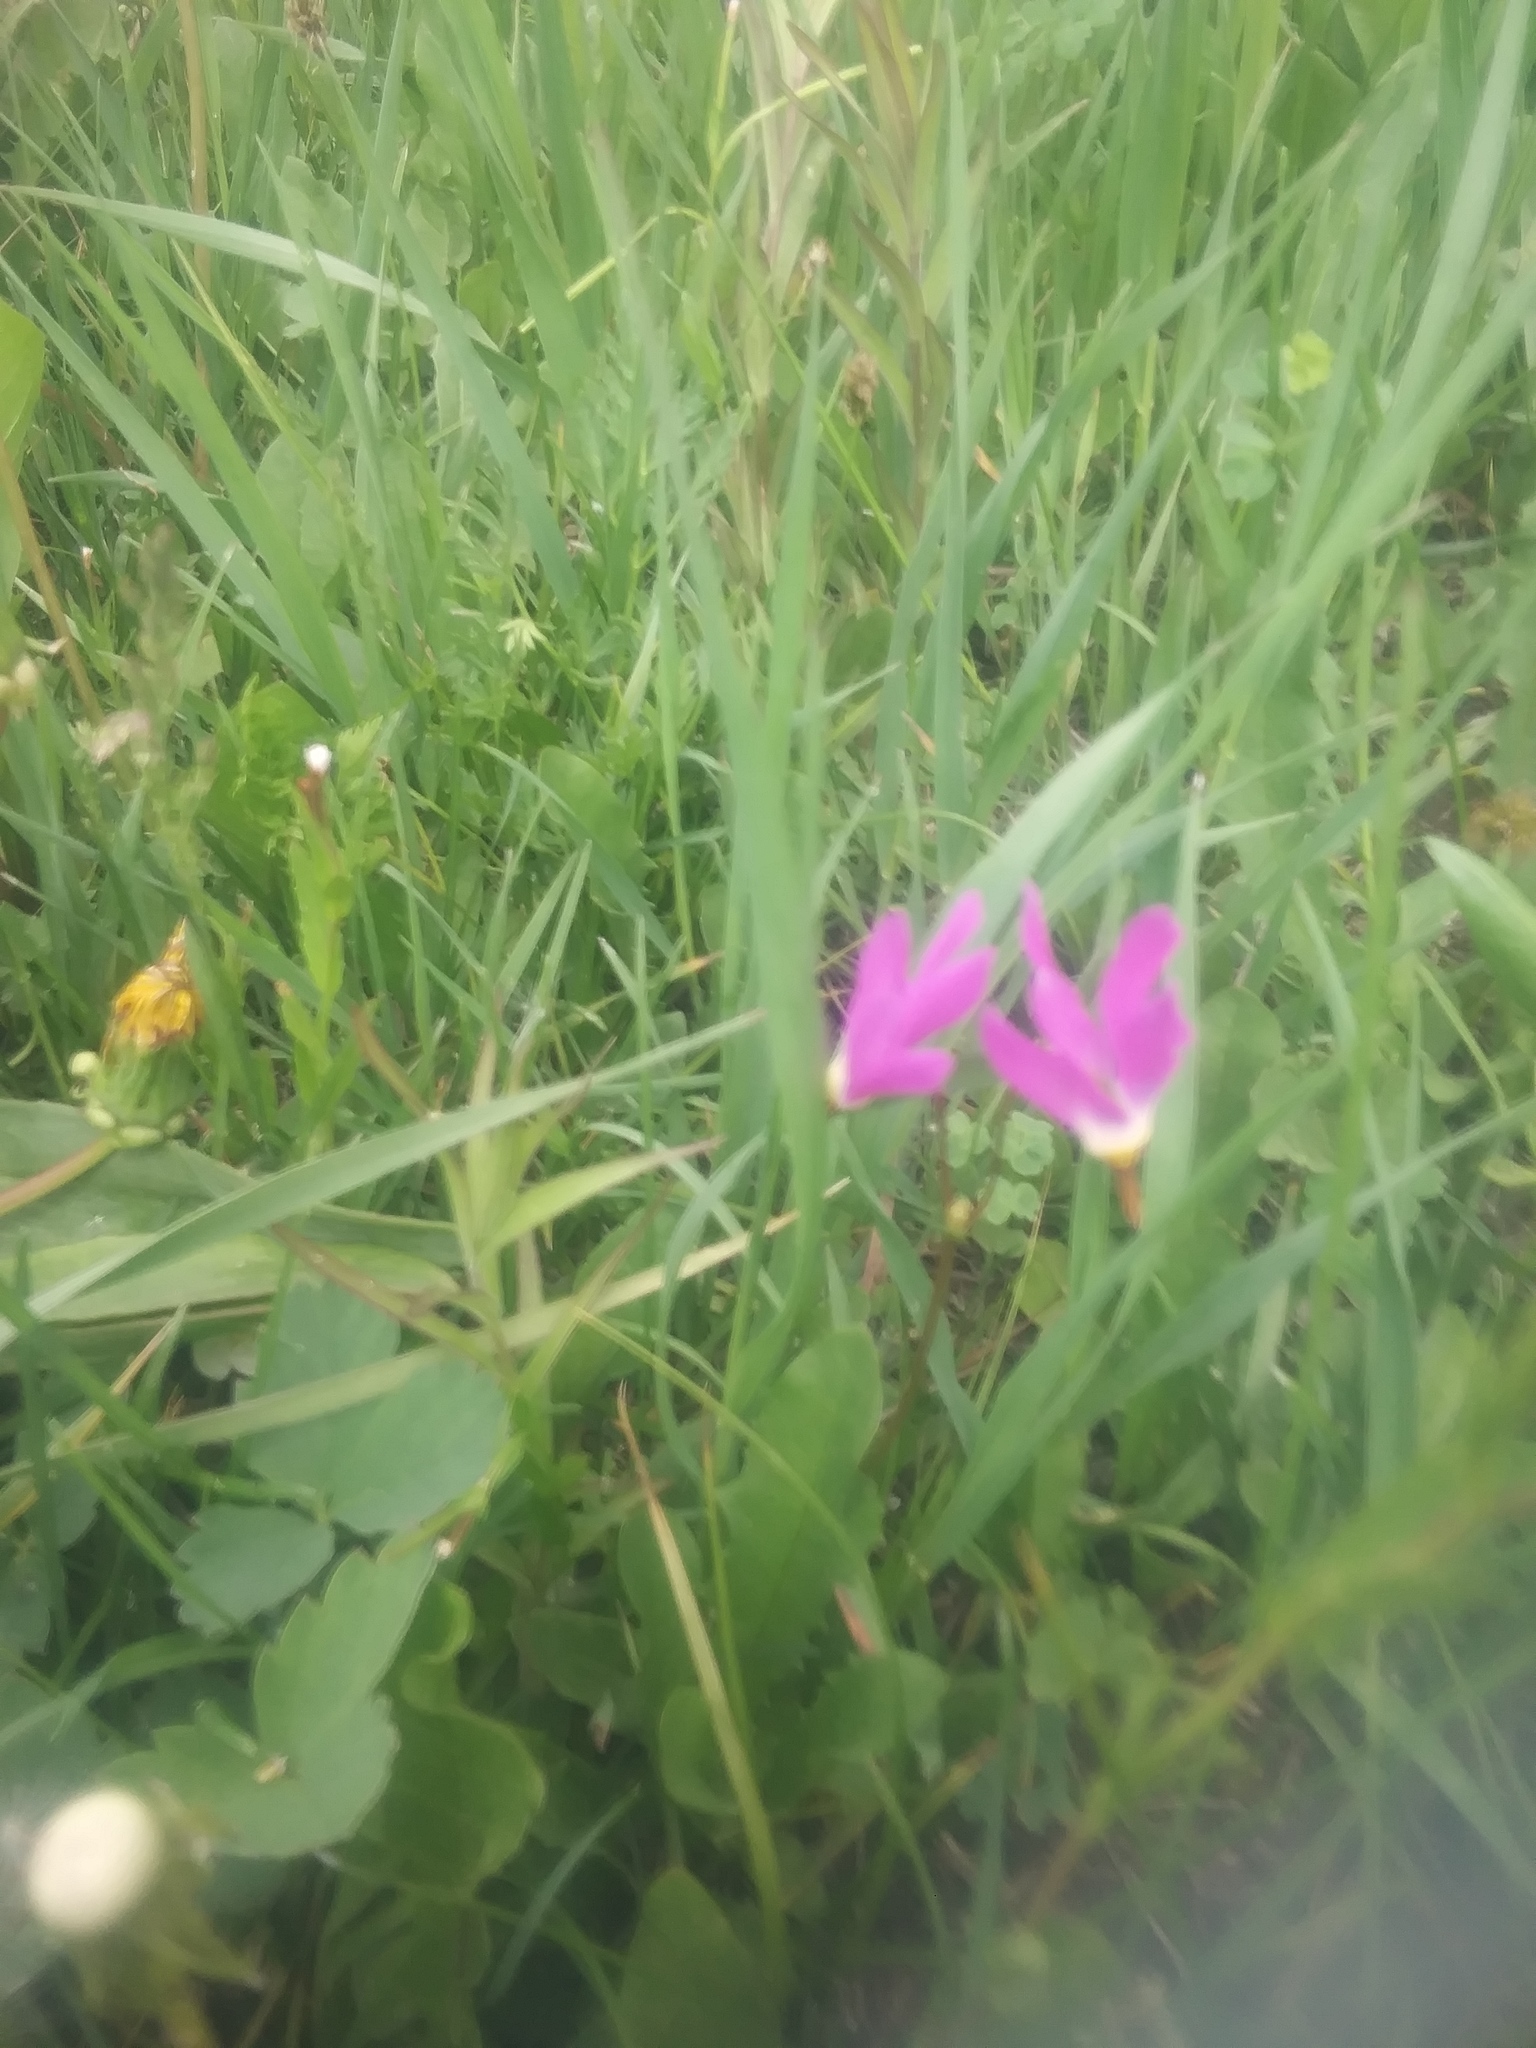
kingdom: Plantae
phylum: Tracheophyta
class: Magnoliopsida
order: Ericales
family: Primulaceae
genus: Dodecatheon
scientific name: Dodecatheon pulchellum
